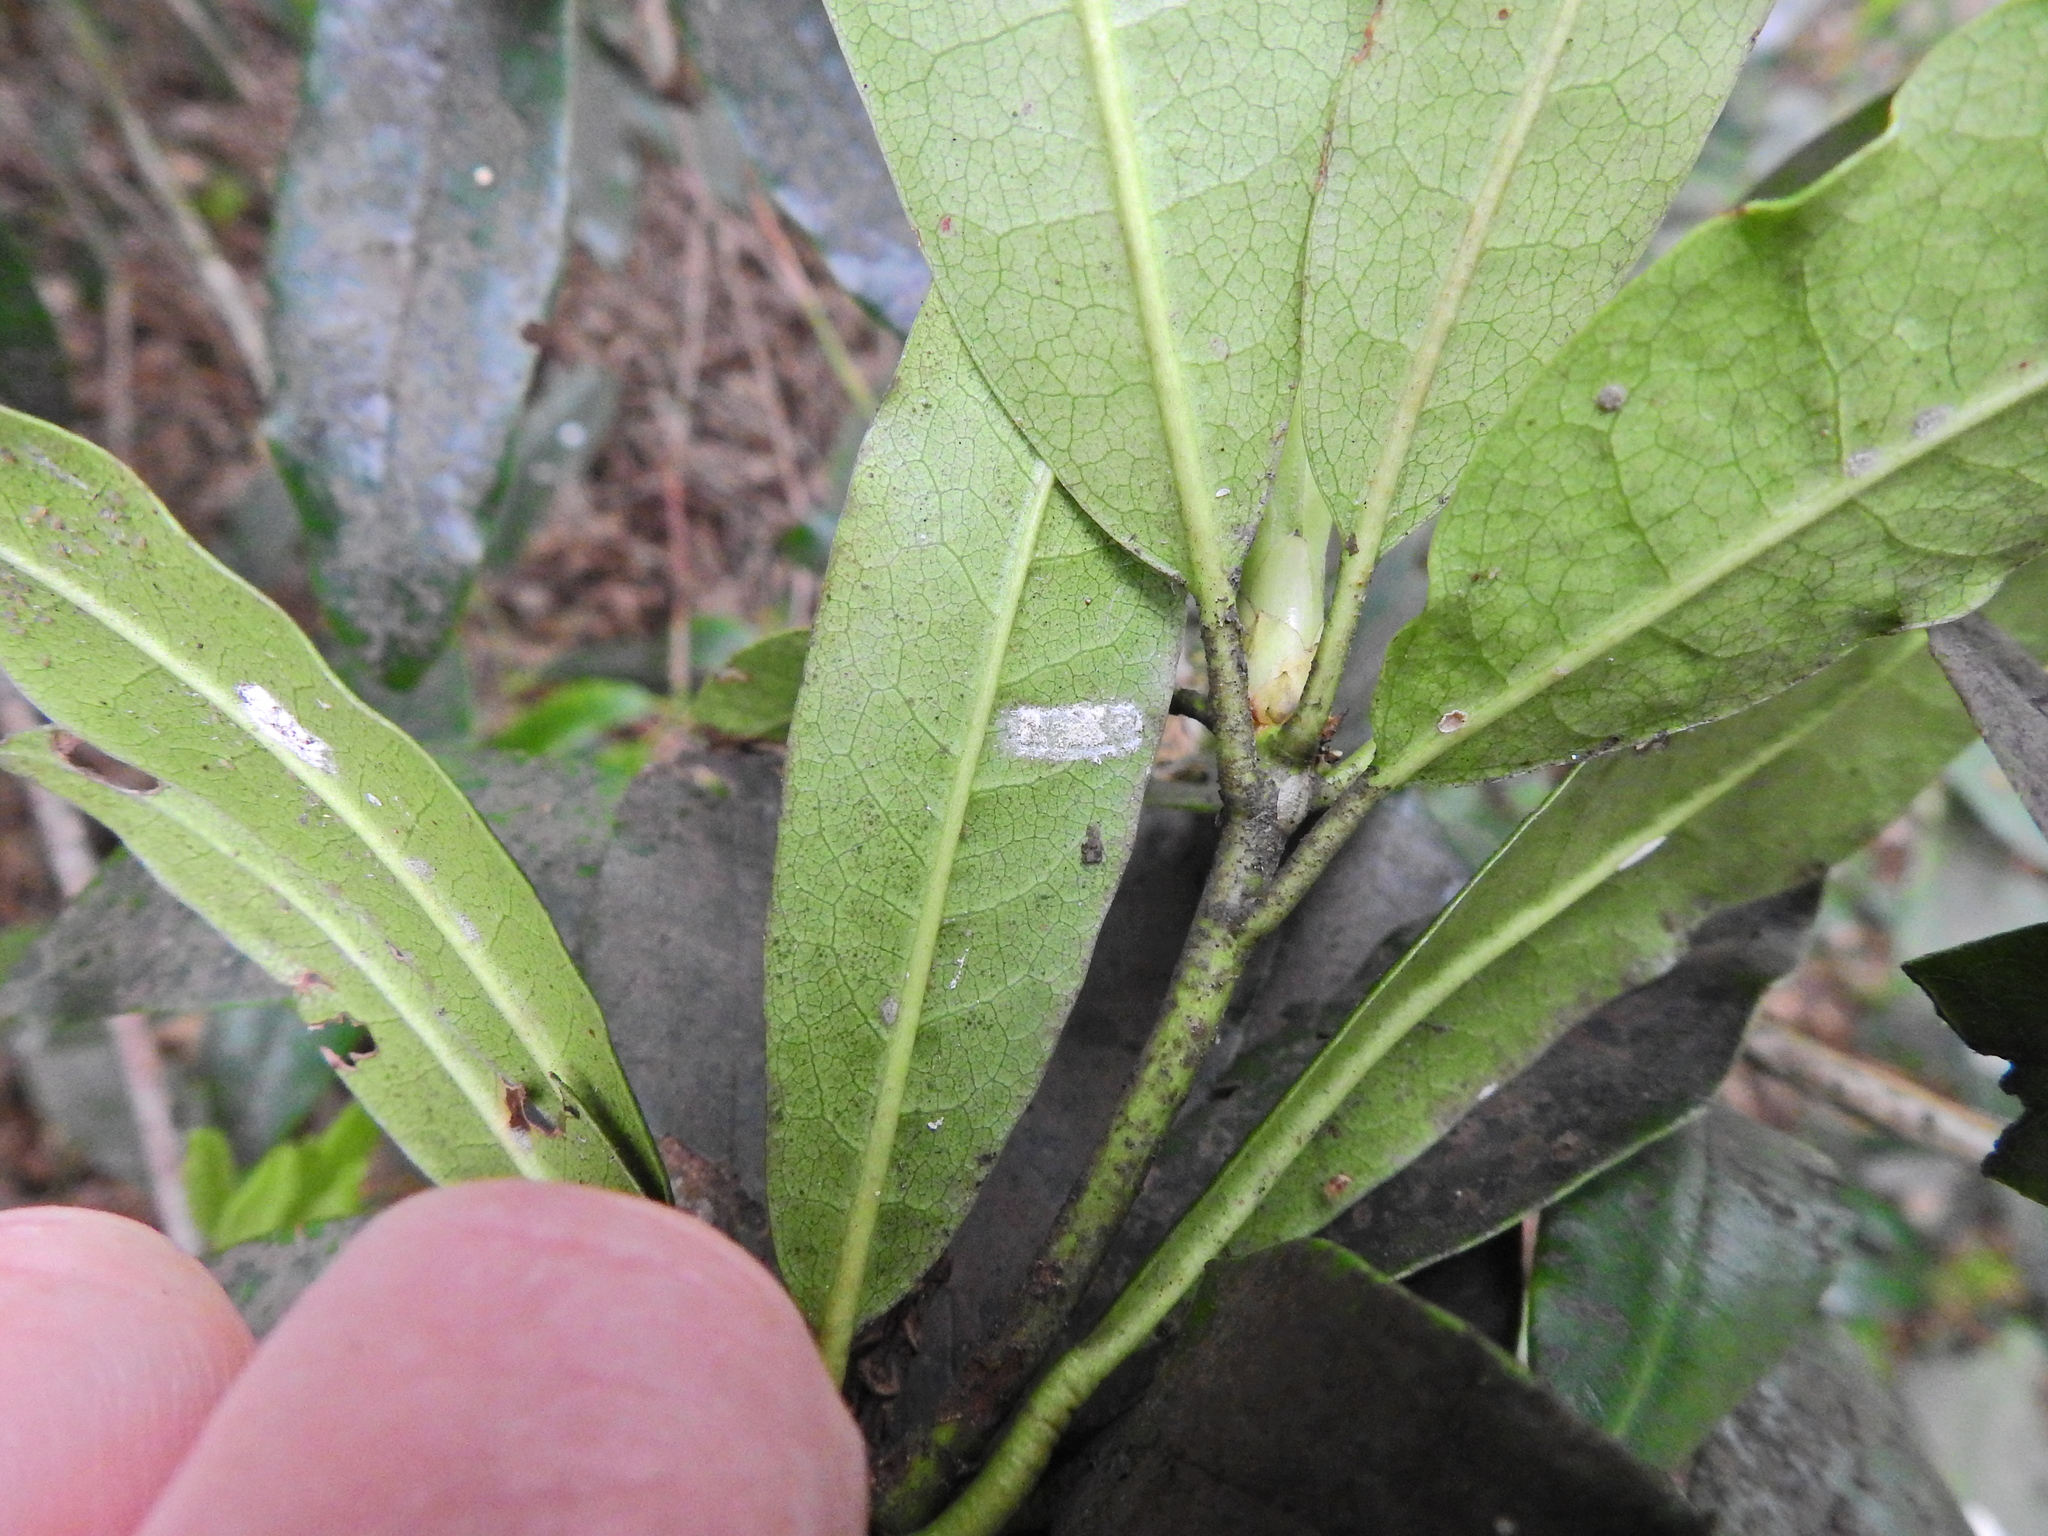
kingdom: Animalia
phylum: Arthropoda
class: Insecta
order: Hemiptera
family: Coccidae
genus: Pulvinaria
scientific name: Pulvinaria floccifera
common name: Cottony camellia scale
